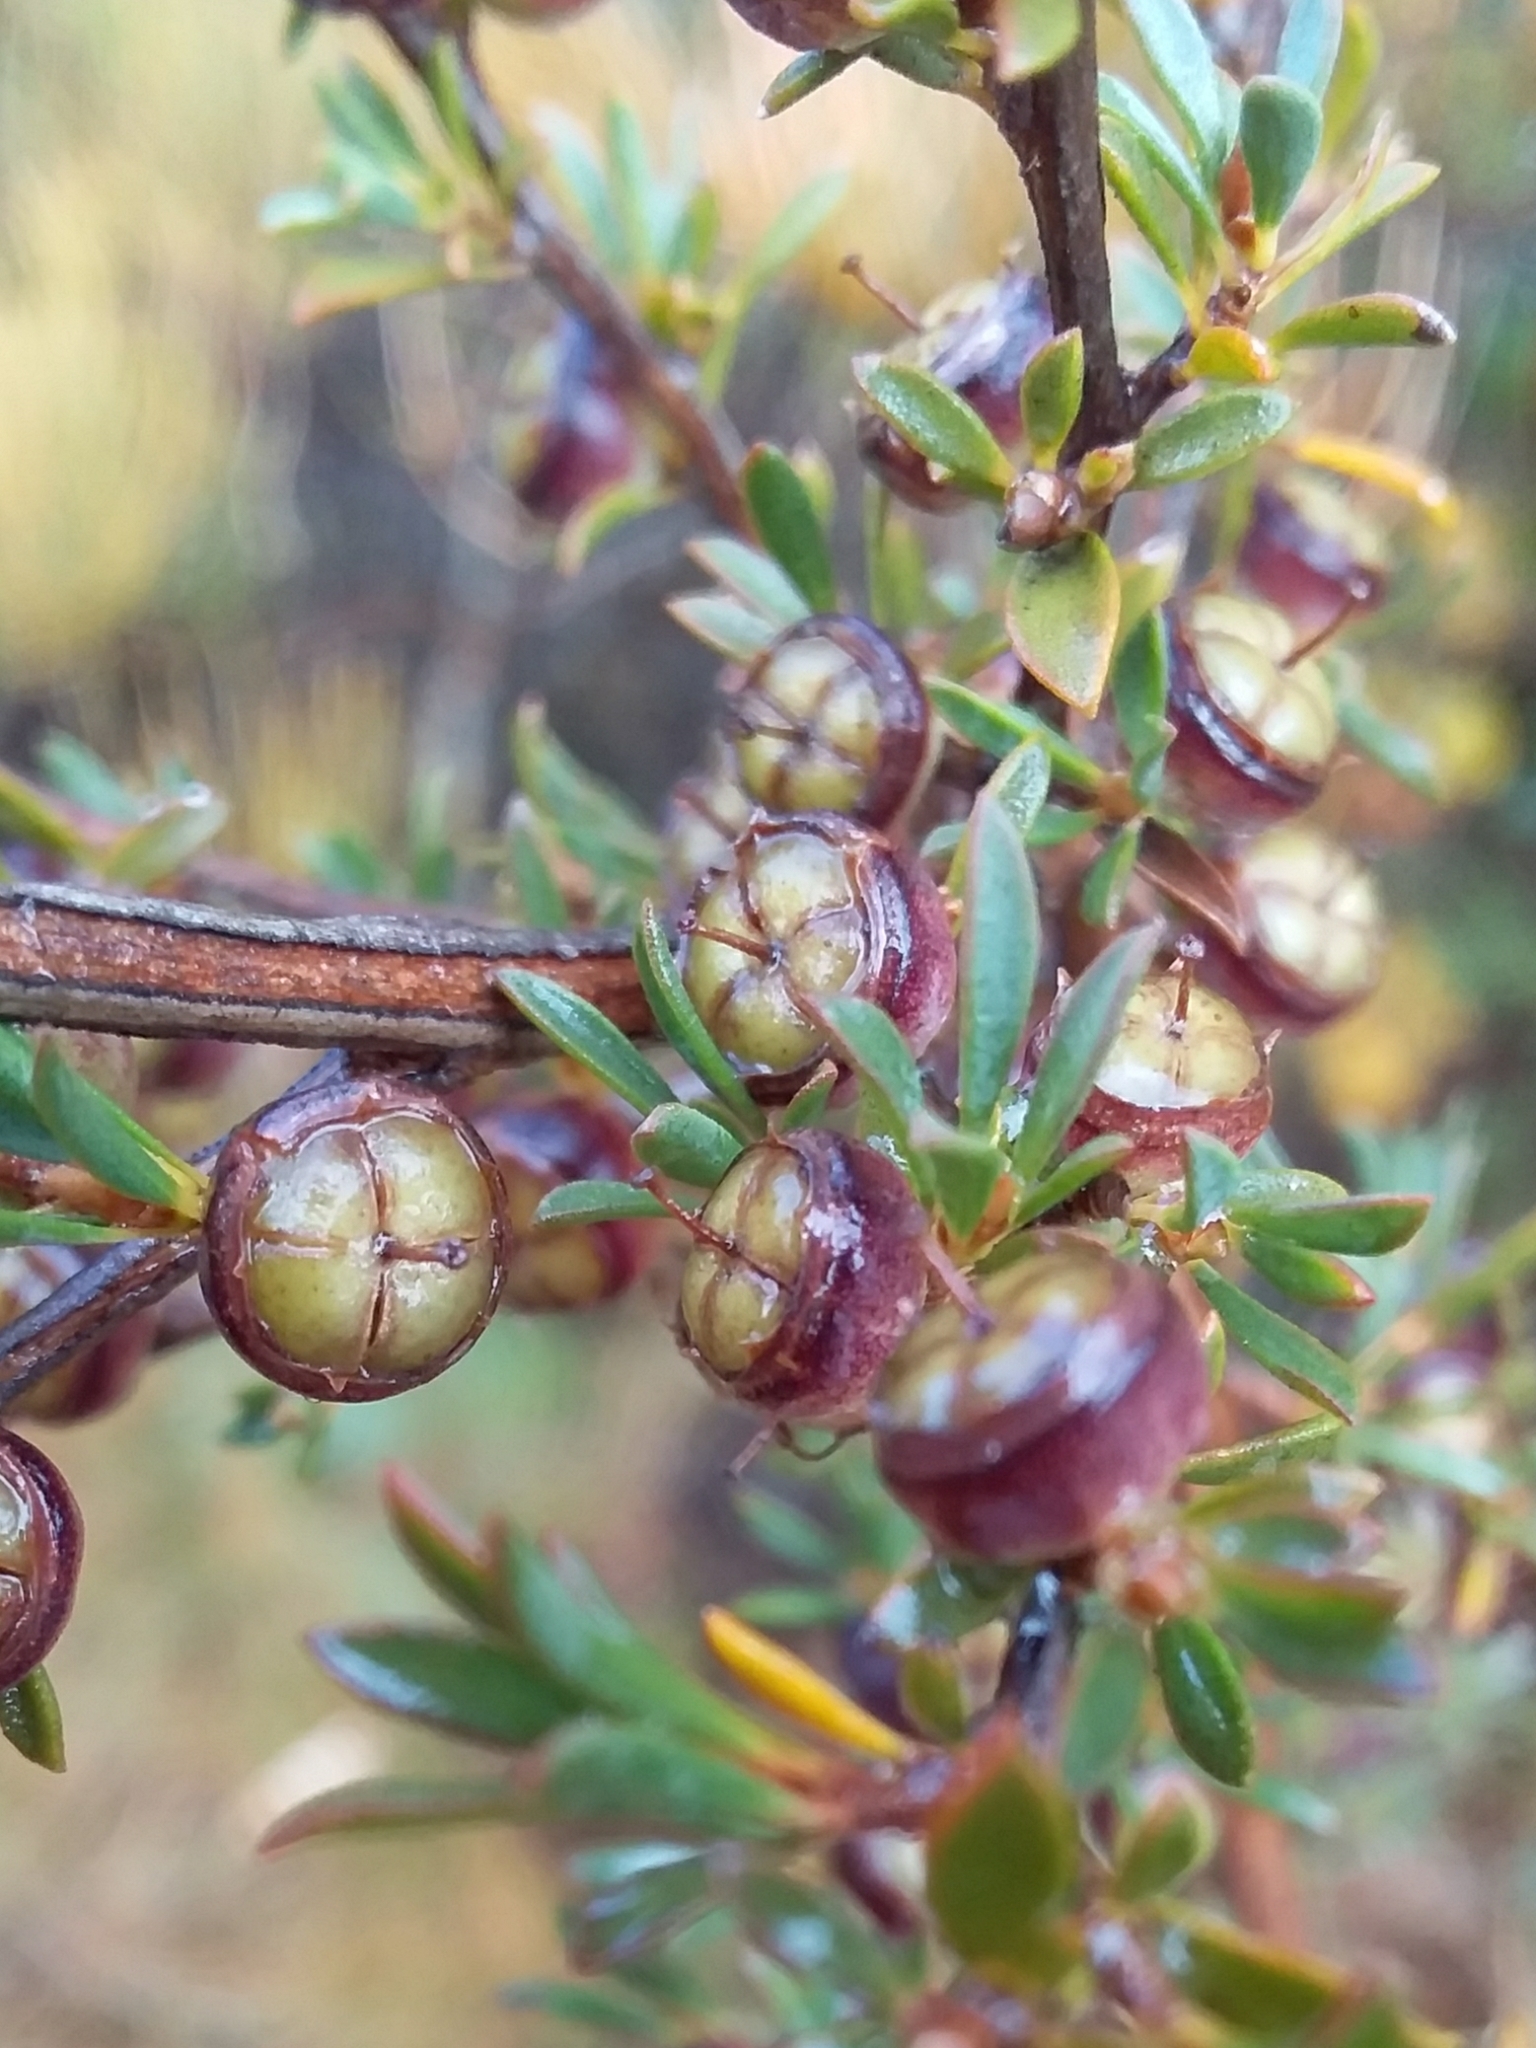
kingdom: Plantae
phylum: Tracheophyta
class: Magnoliopsida
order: Myrtales
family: Myrtaceae
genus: Leptospermum
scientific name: Leptospermum myrsinoides
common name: Heath teatree
